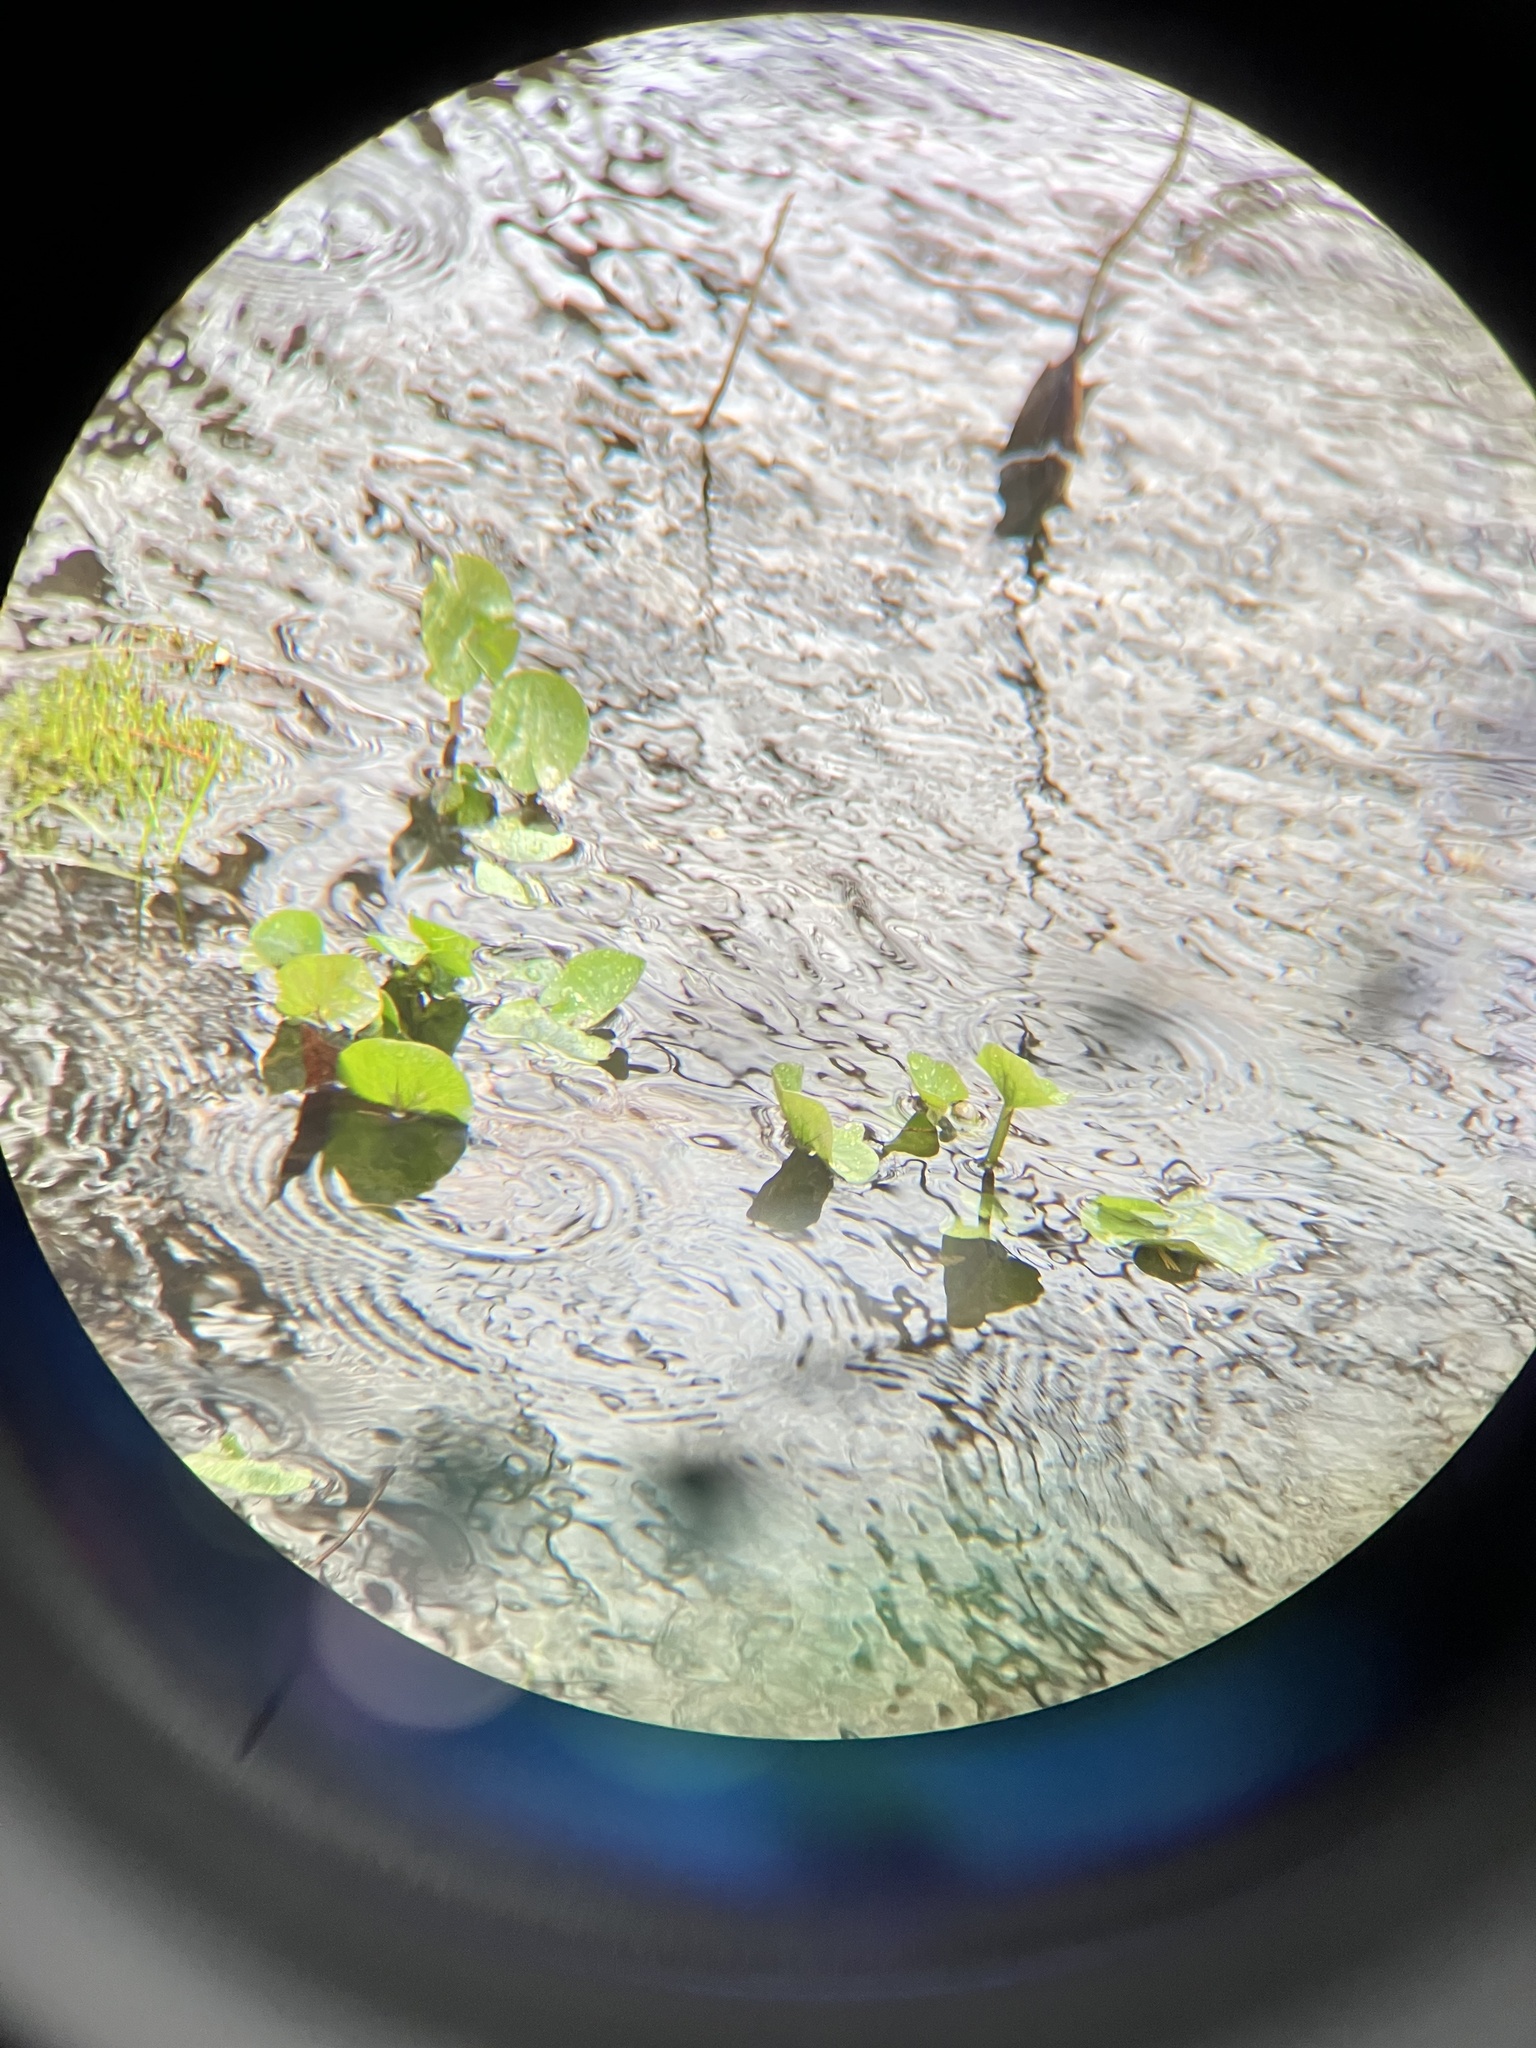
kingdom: Plantae
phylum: Tracheophyta
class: Magnoliopsida
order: Ranunculales
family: Ranunculaceae
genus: Caltha
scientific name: Caltha palustris
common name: Marsh marigold
